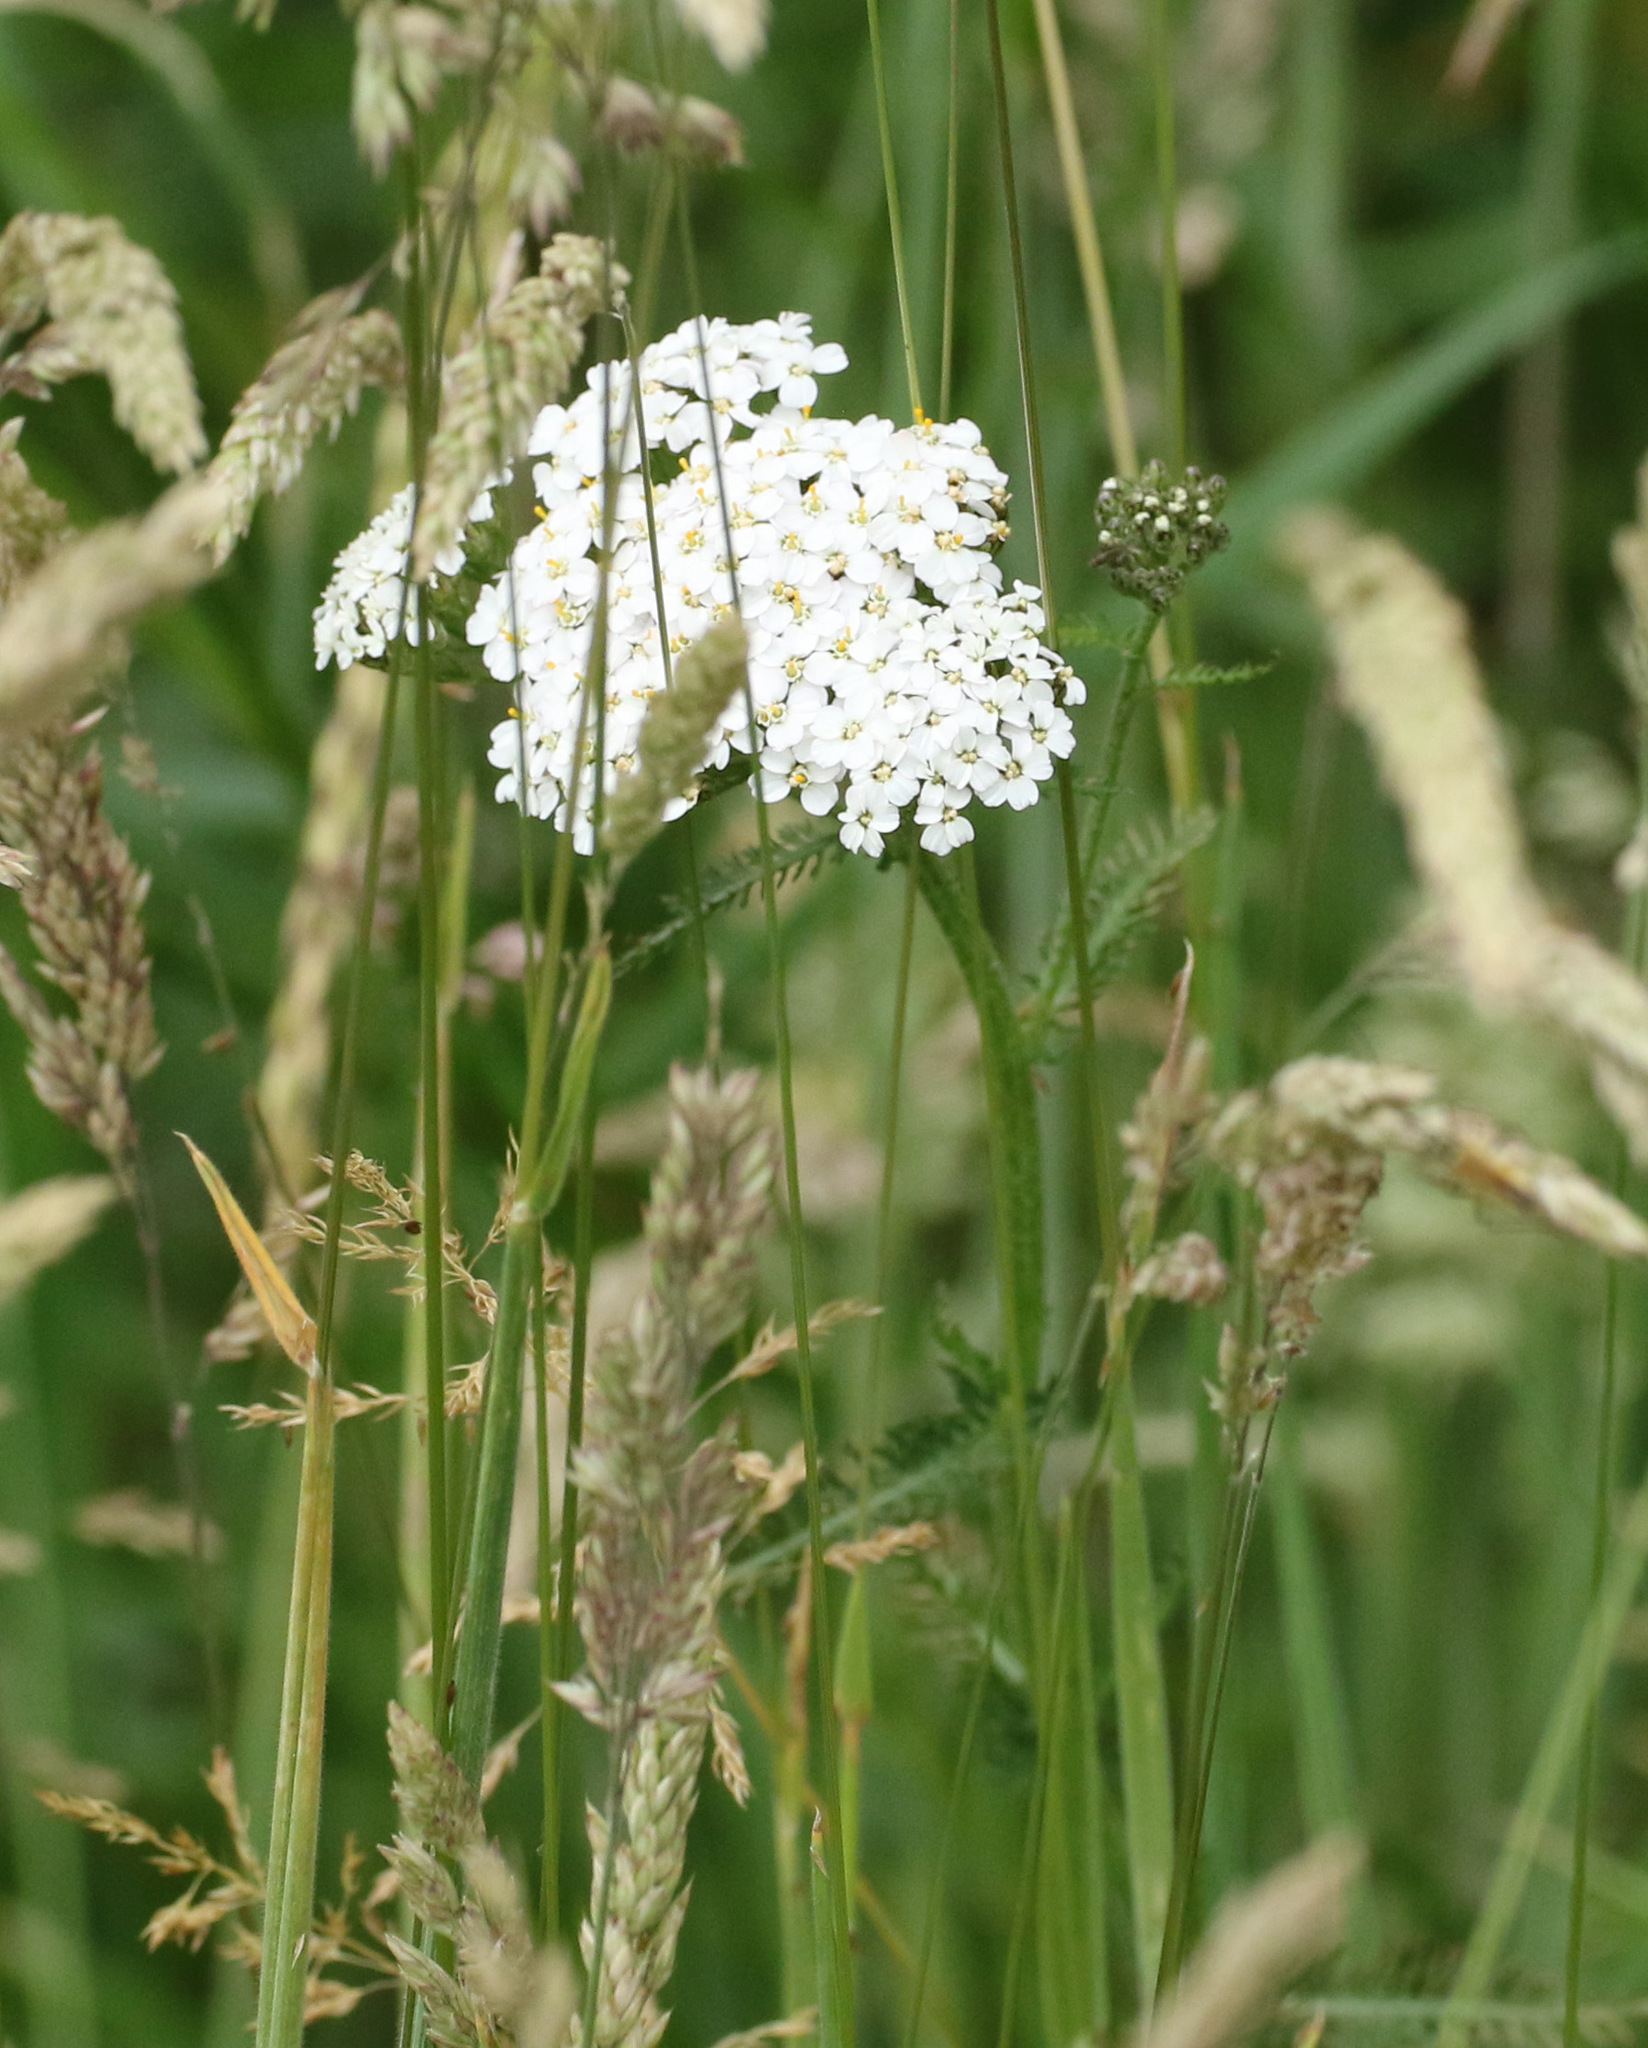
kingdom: Plantae
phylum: Tracheophyta
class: Magnoliopsida
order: Asterales
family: Asteraceae
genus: Achillea
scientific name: Achillea millefolium
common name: Yarrow
